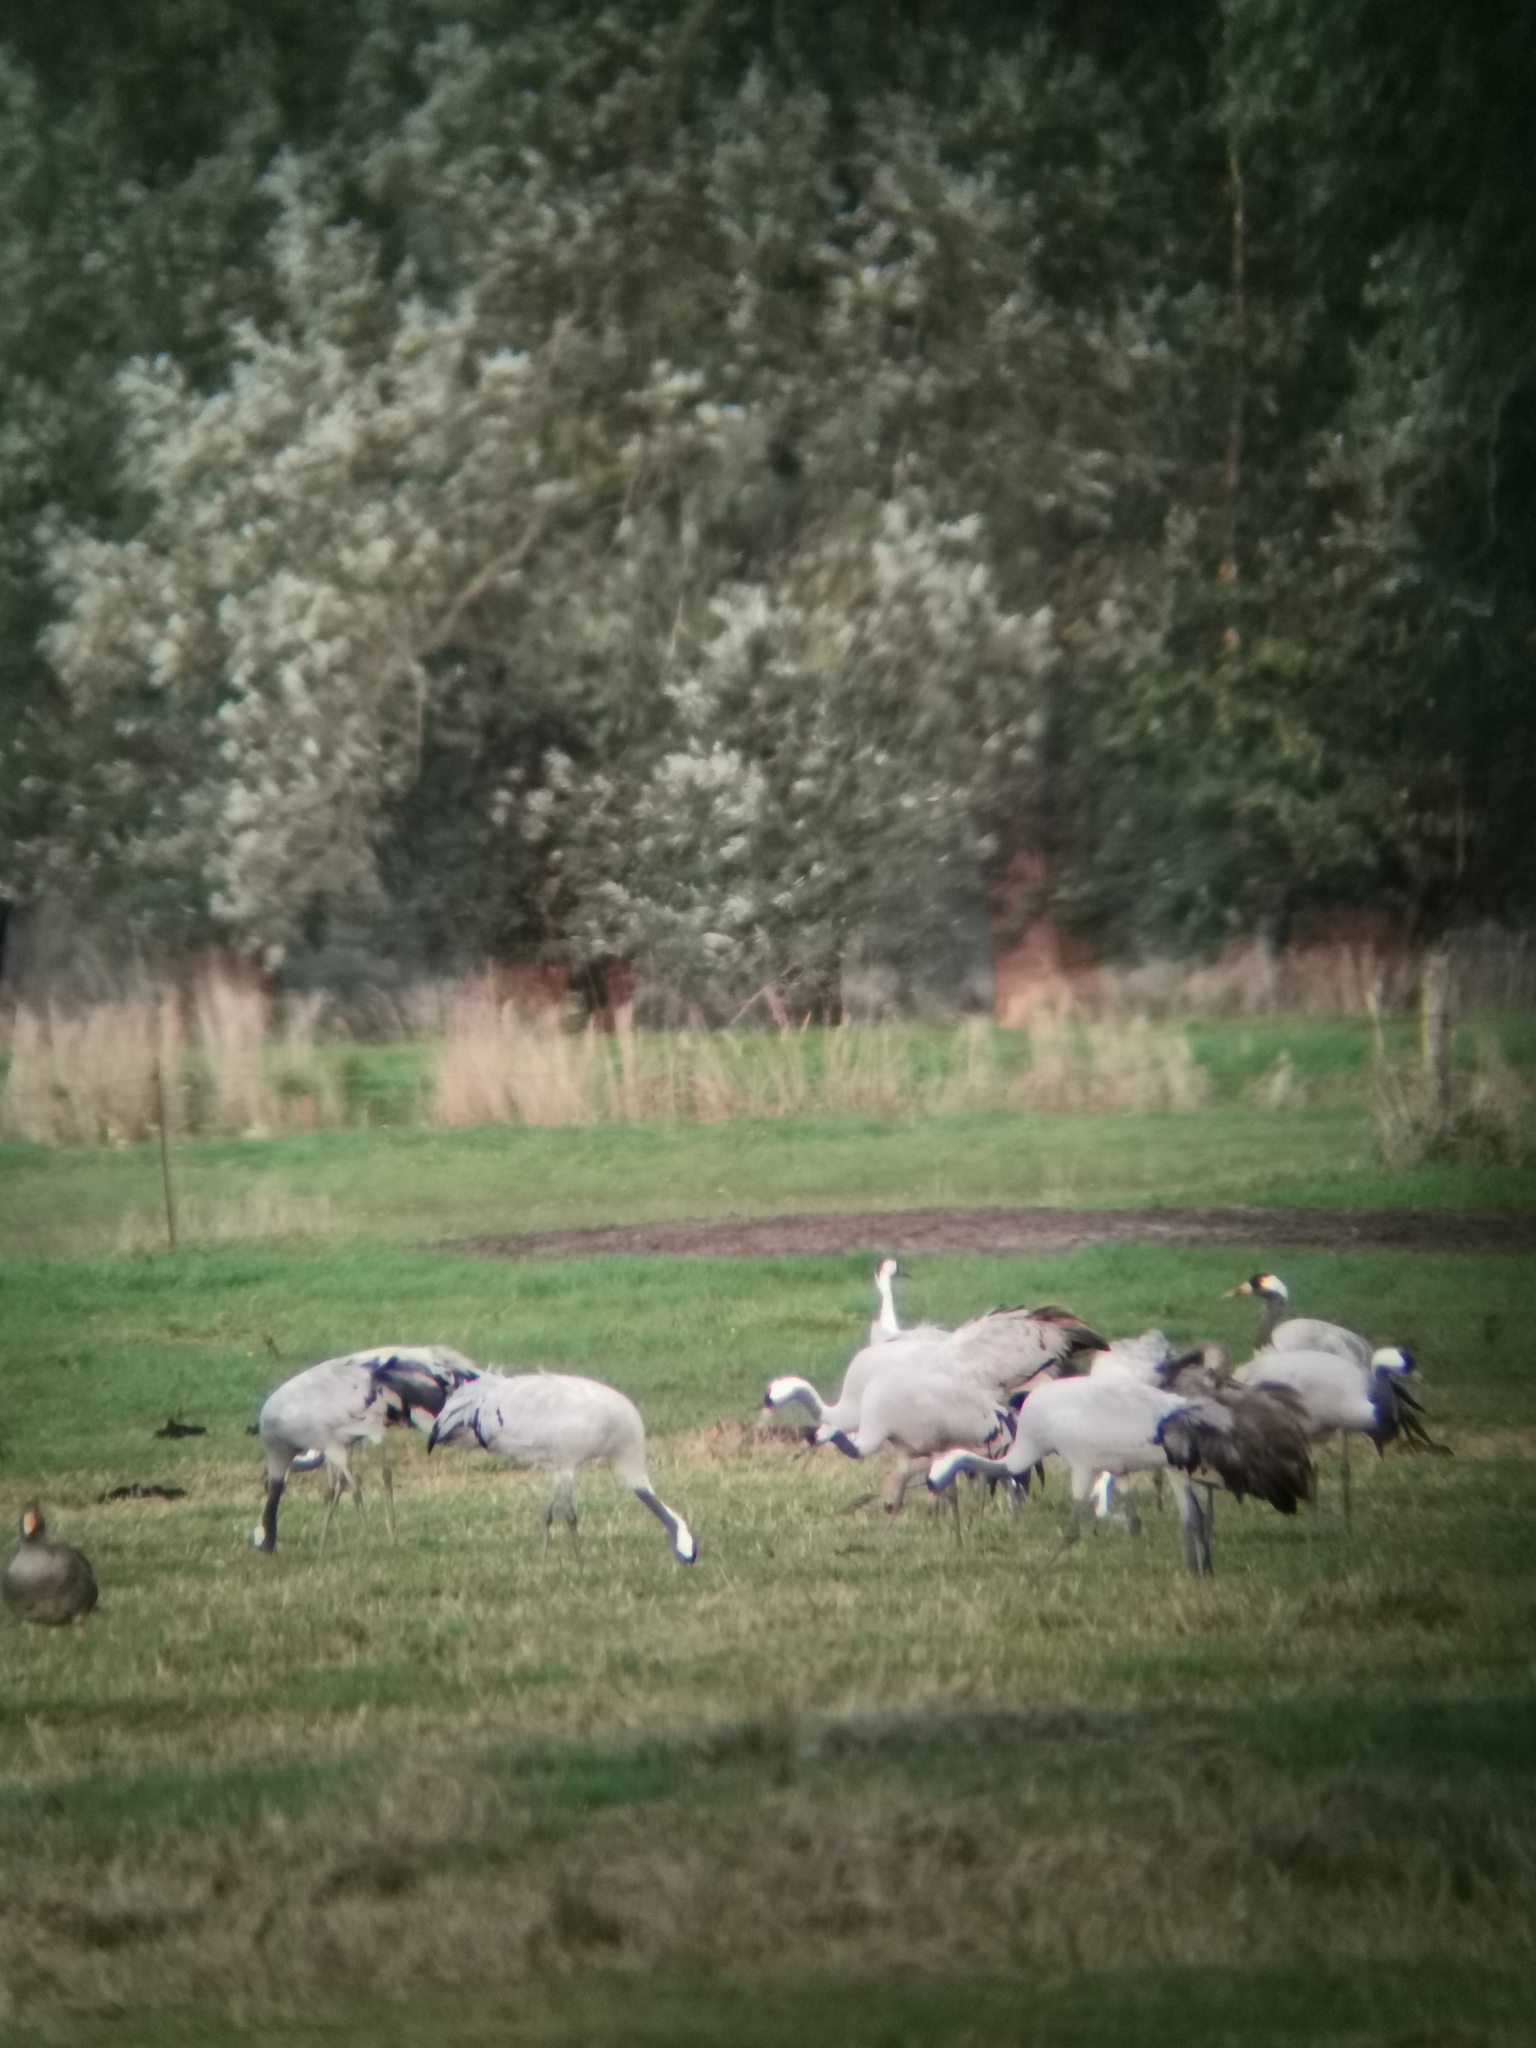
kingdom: Animalia
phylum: Chordata
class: Aves
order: Gruiformes
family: Gruidae
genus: Grus
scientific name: Grus grus
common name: Common crane
